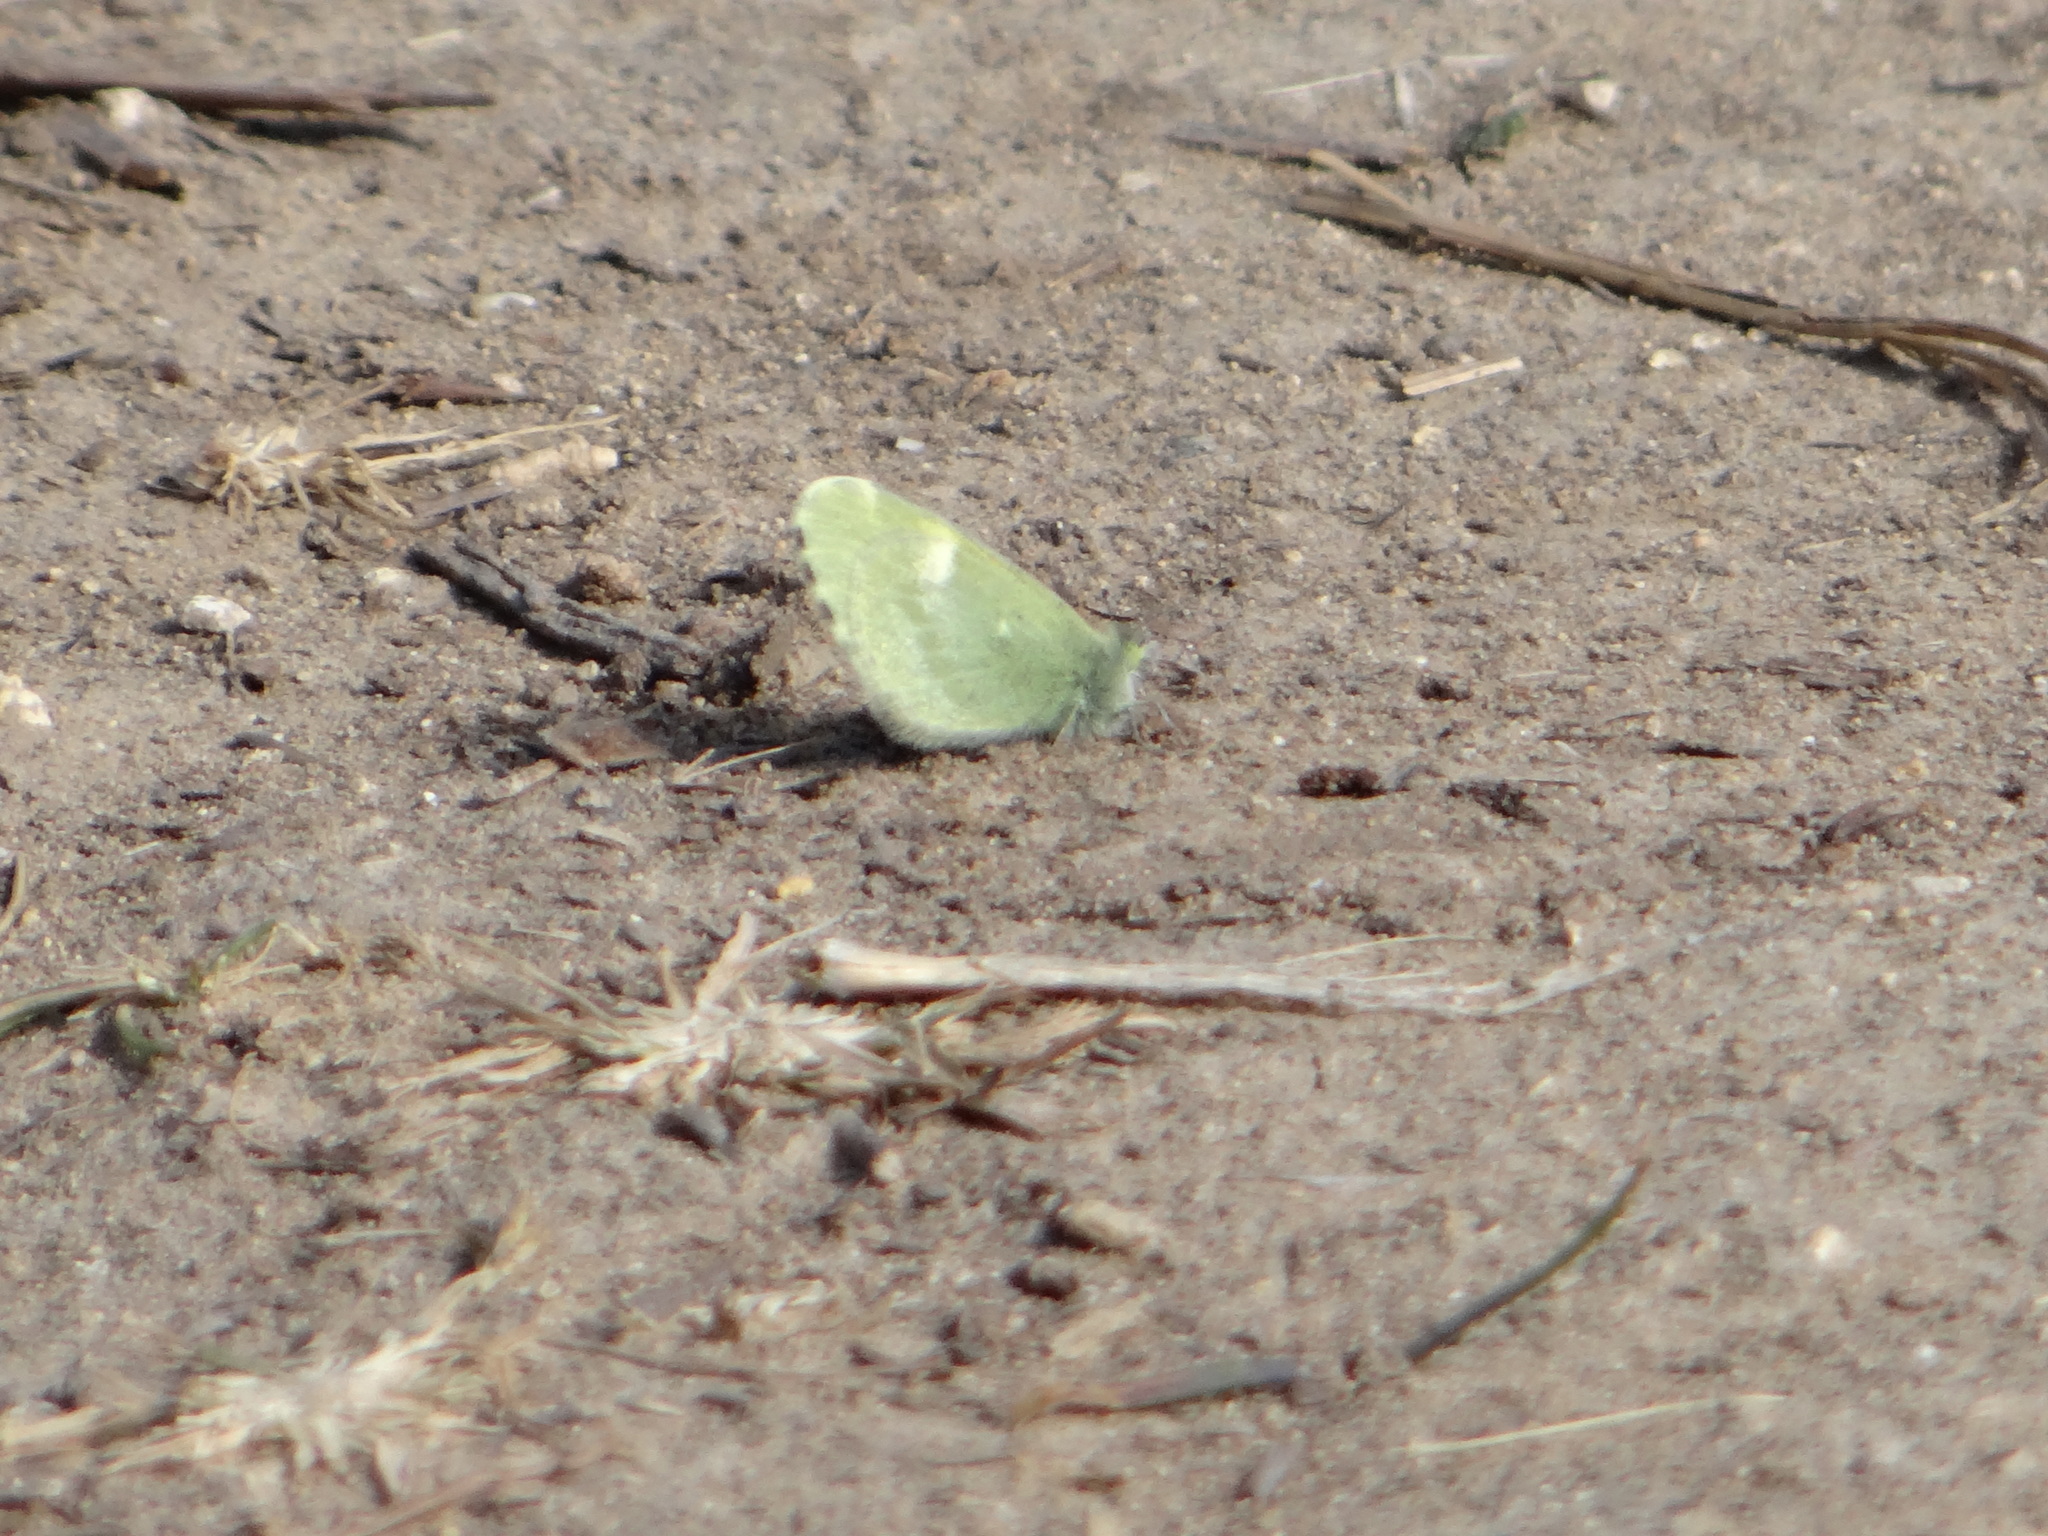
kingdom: Animalia
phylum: Arthropoda
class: Insecta
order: Lepidoptera
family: Pieridae
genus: Nathalis
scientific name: Nathalis iole
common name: Dainty sulphur
